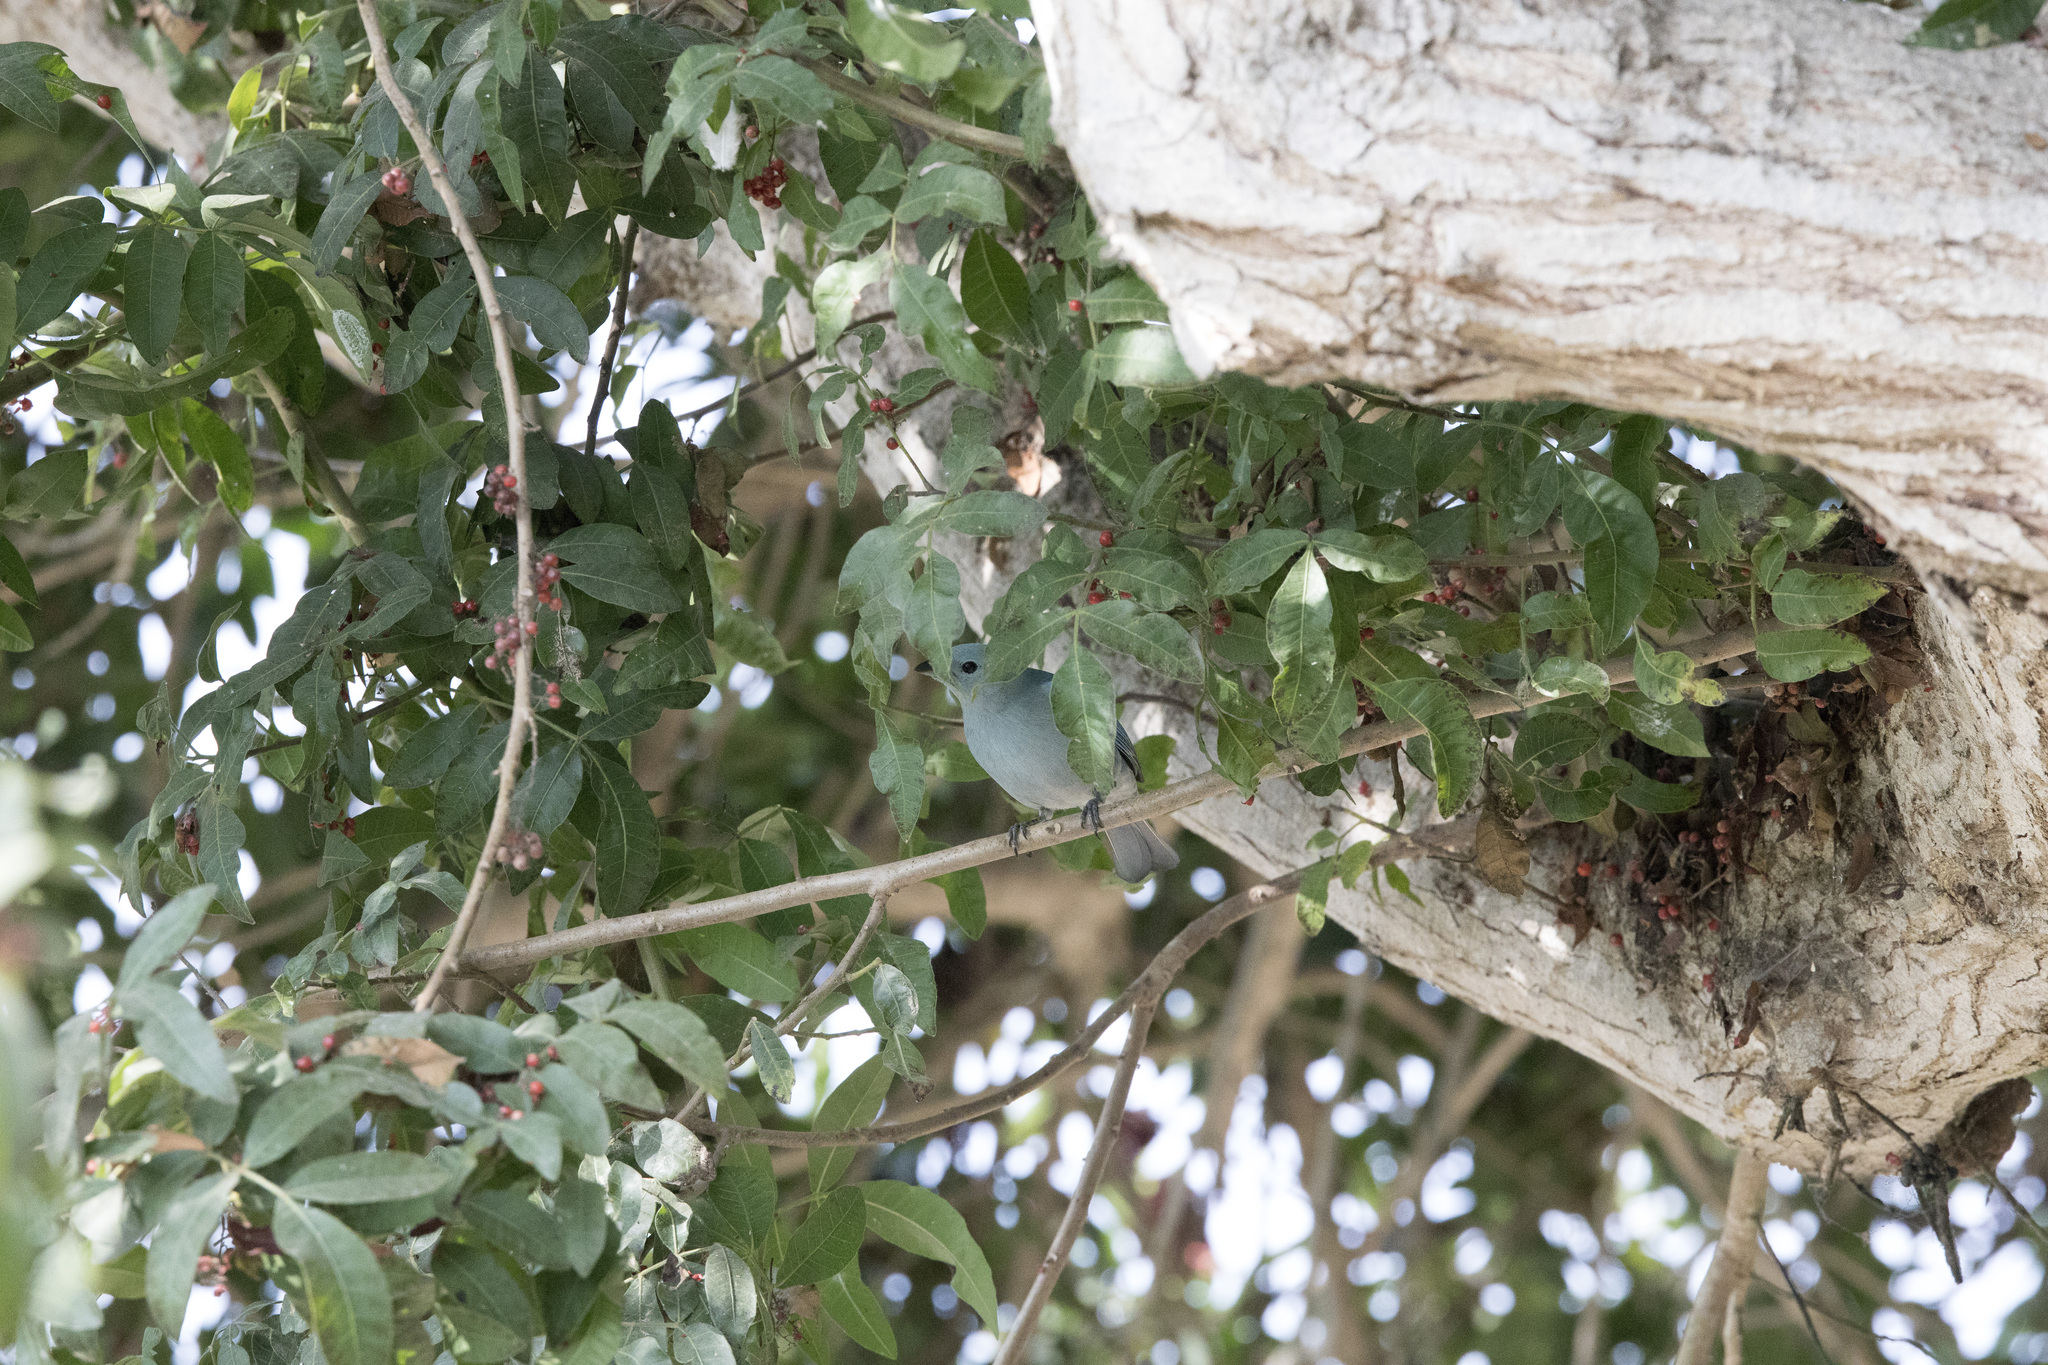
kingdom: Animalia
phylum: Chordata
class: Aves
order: Passeriformes
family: Thraupidae
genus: Thraupis
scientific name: Thraupis episcopus
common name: Blue-grey tanager
